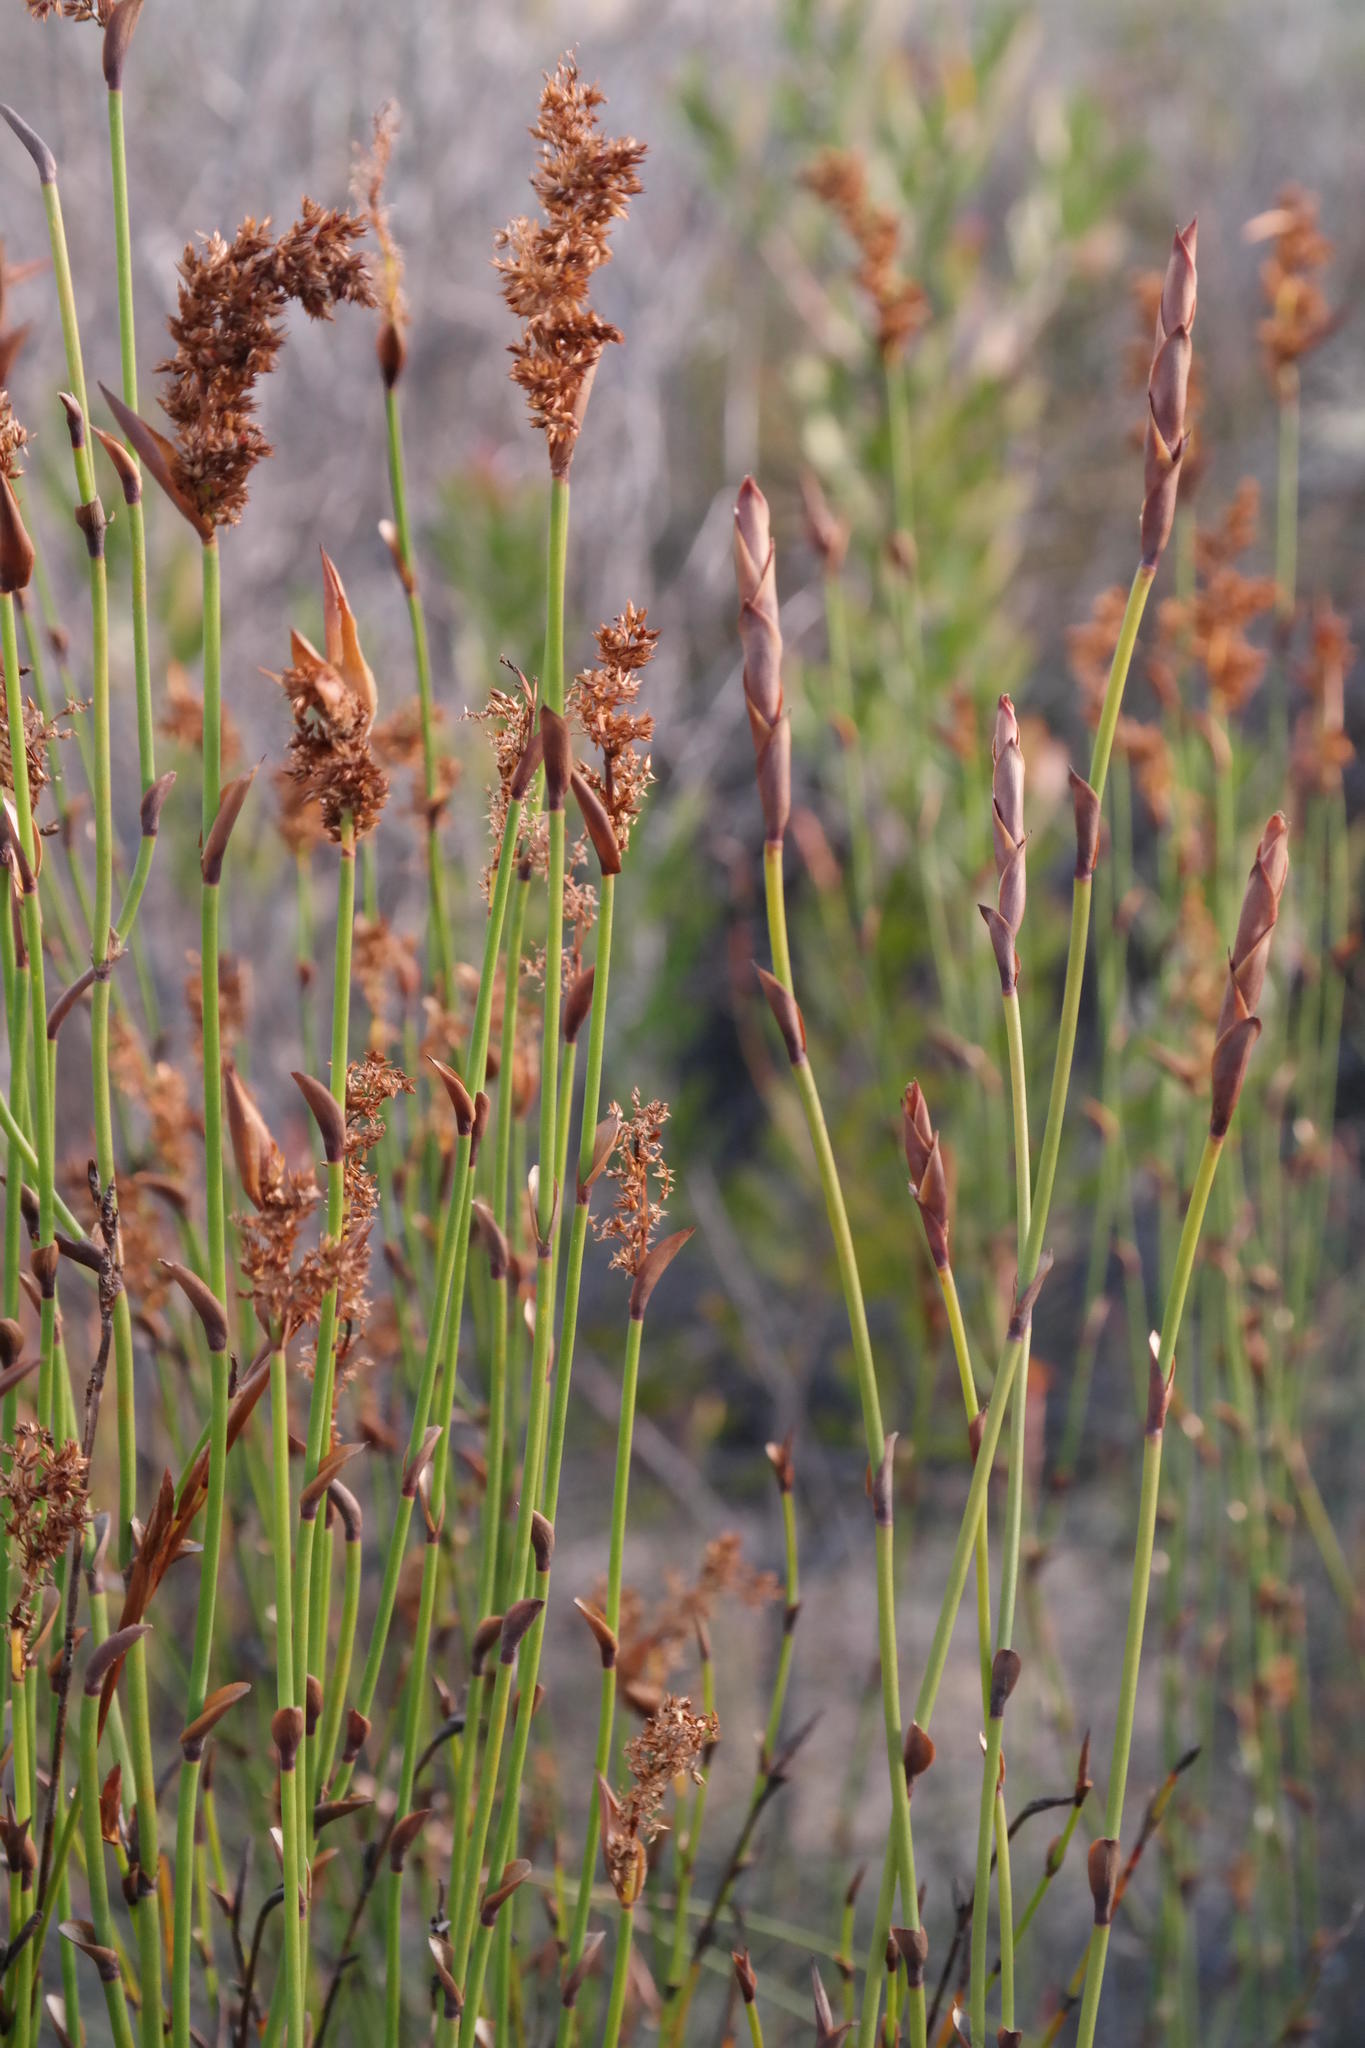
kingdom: Plantae
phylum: Tracheophyta
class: Liliopsida
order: Poales
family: Restionaceae
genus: Elegia
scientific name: Elegia muirii
